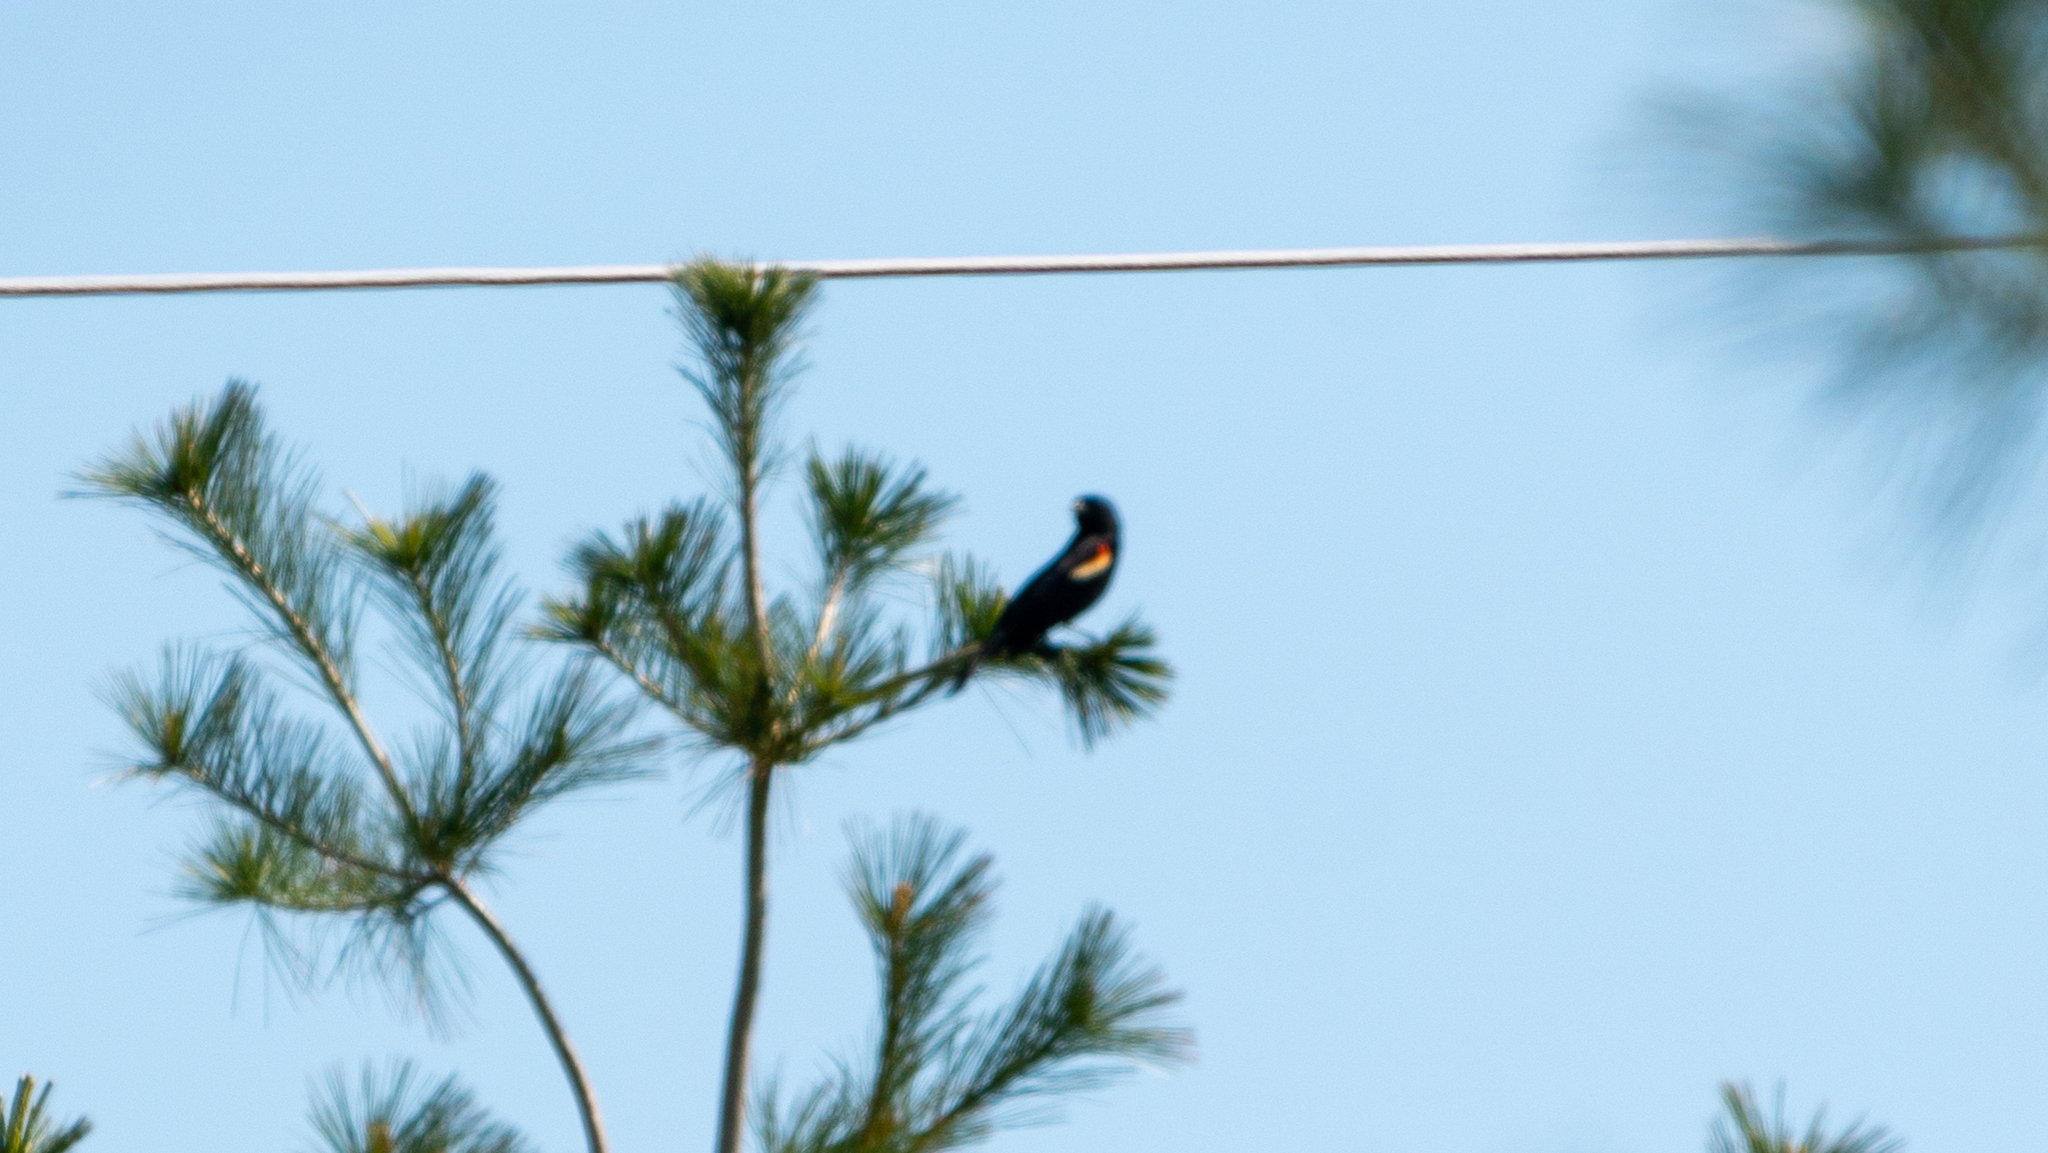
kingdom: Animalia
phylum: Chordata
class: Aves
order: Passeriformes
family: Icteridae
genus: Agelaius
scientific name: Agelaius phoeniceus
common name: Red-winged blackbird
